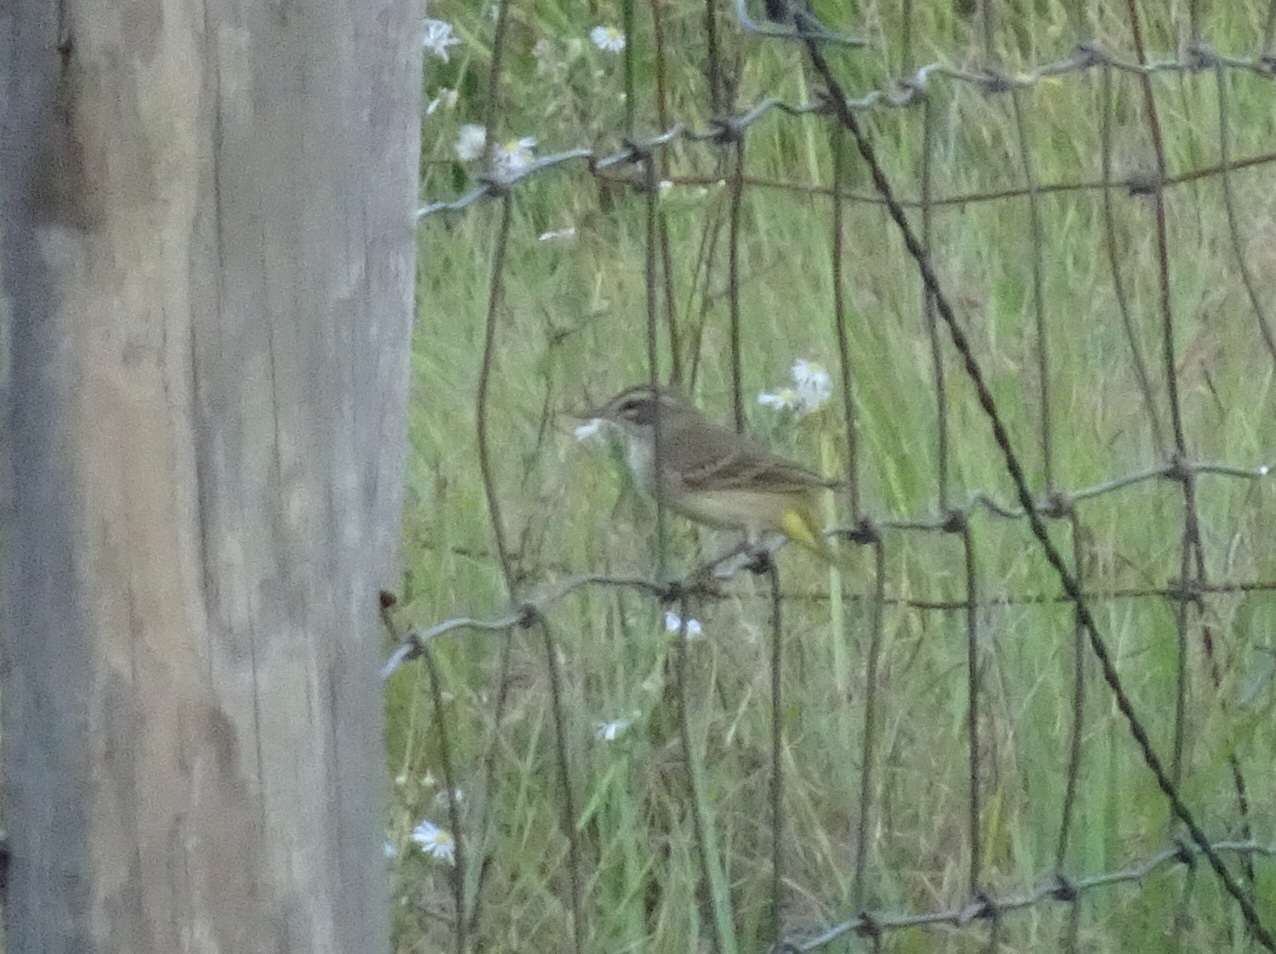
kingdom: Animalia
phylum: Chordata
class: Aves
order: Passeriformes
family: Parulidae
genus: Setophaga
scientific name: Setophaga palmarum
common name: Palm warbler
